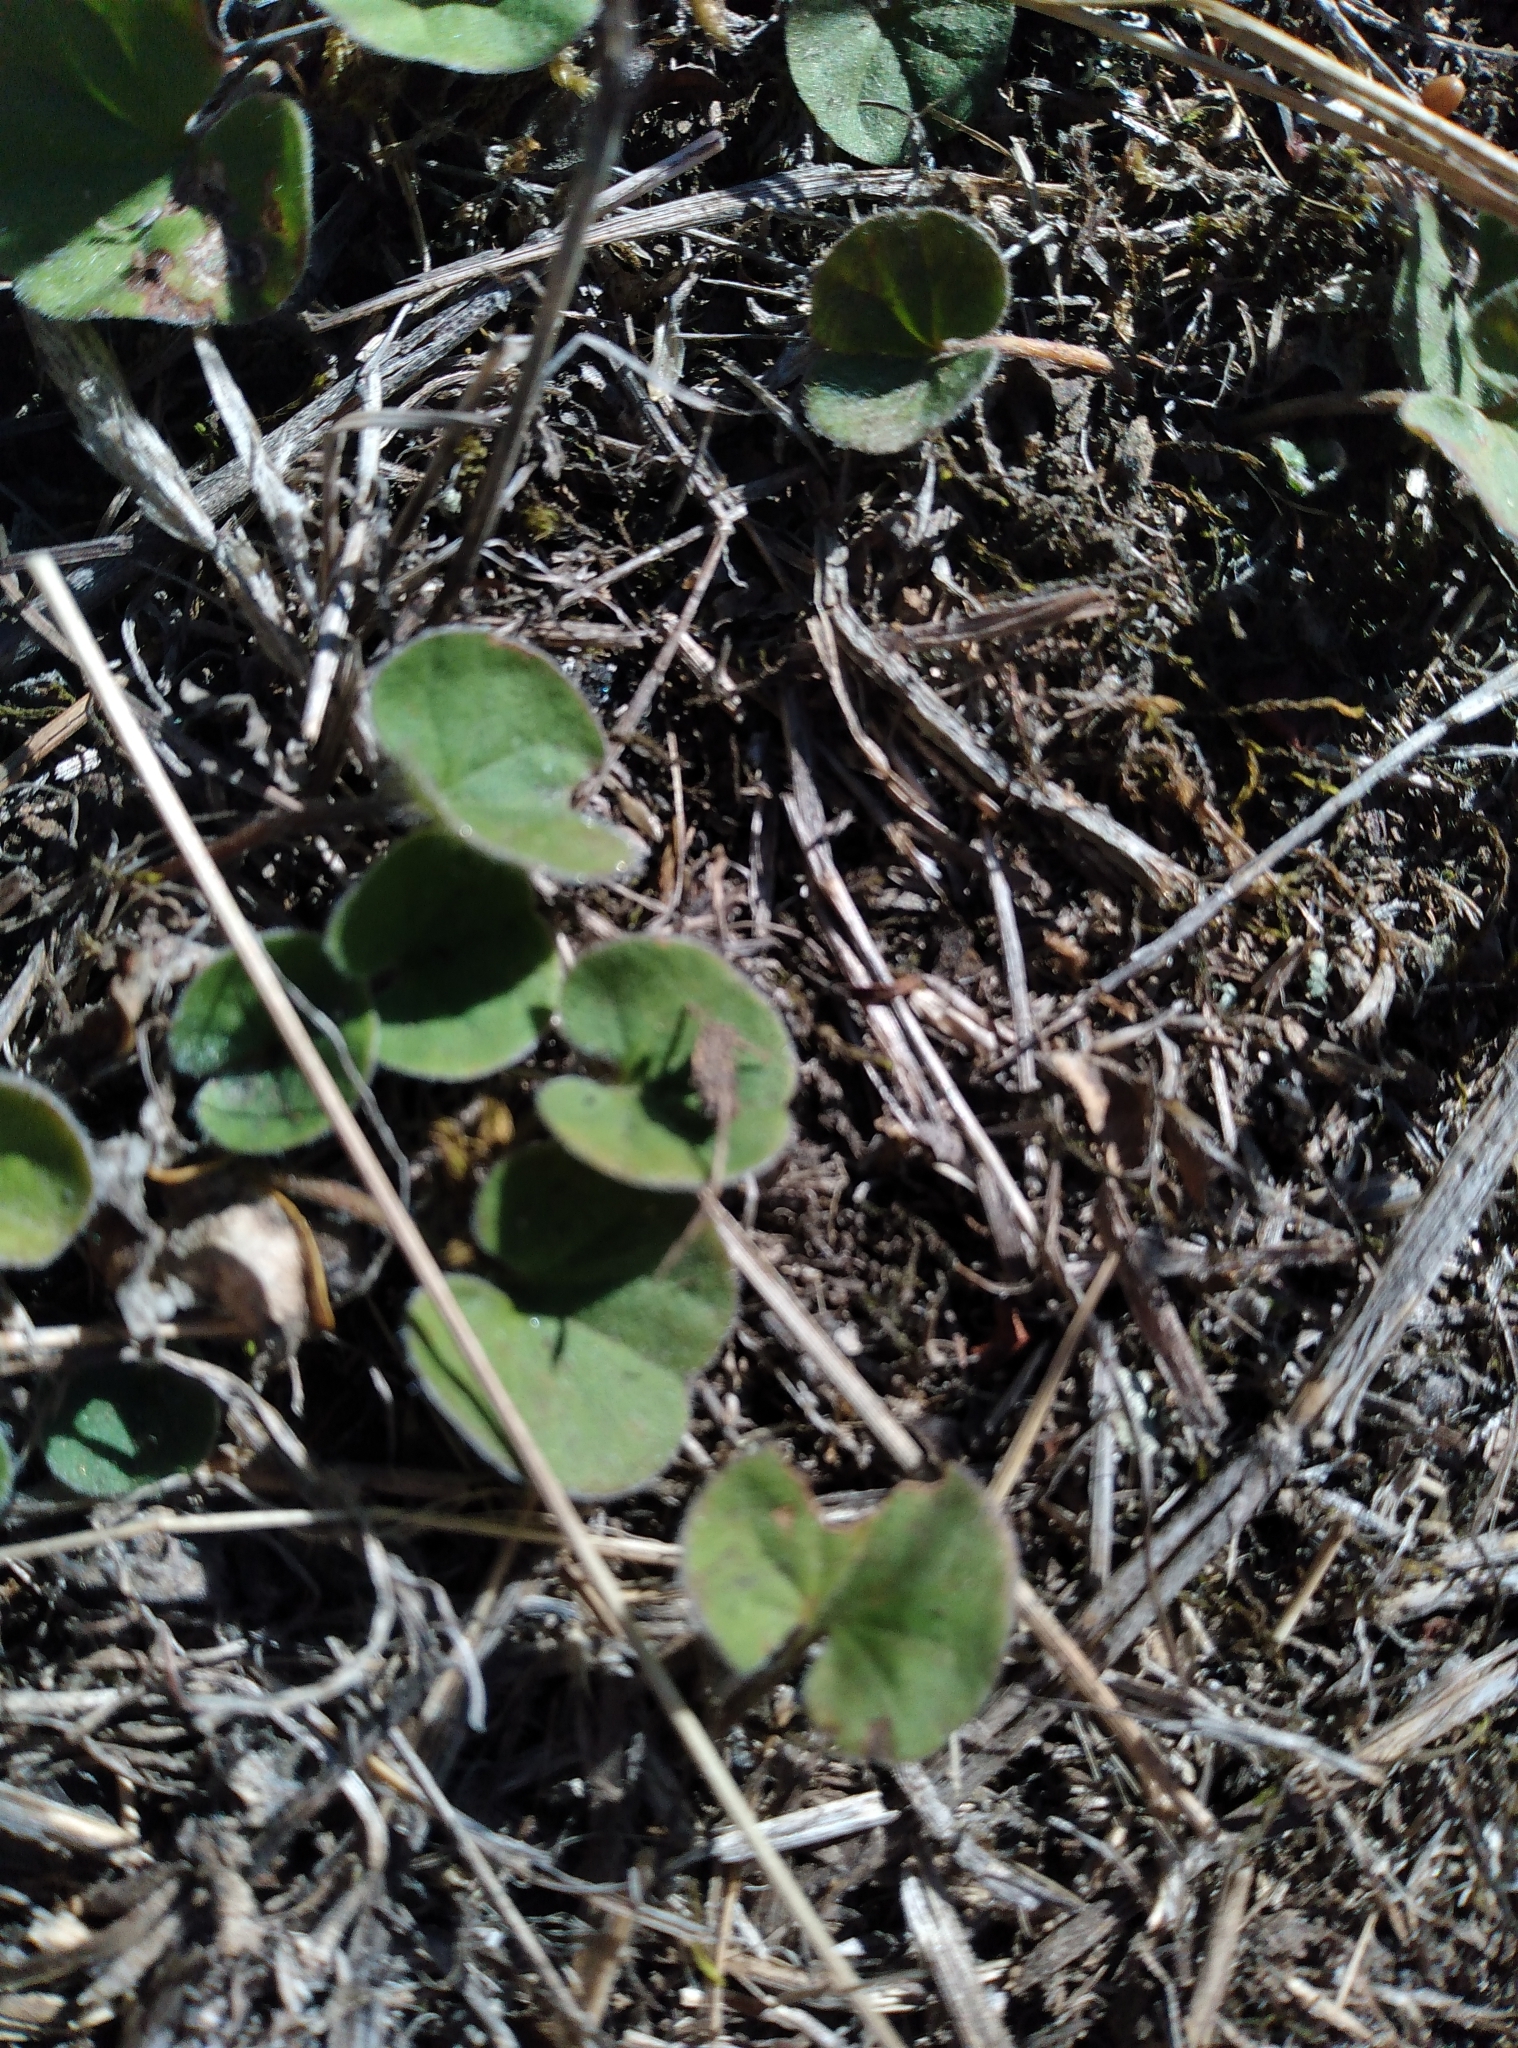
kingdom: Plantae
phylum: Tracheophyta
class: Magnoliopsida
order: Solanales
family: Convolvulaceae
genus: Dichondra
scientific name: Dichondra repens
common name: Kidneyweed
